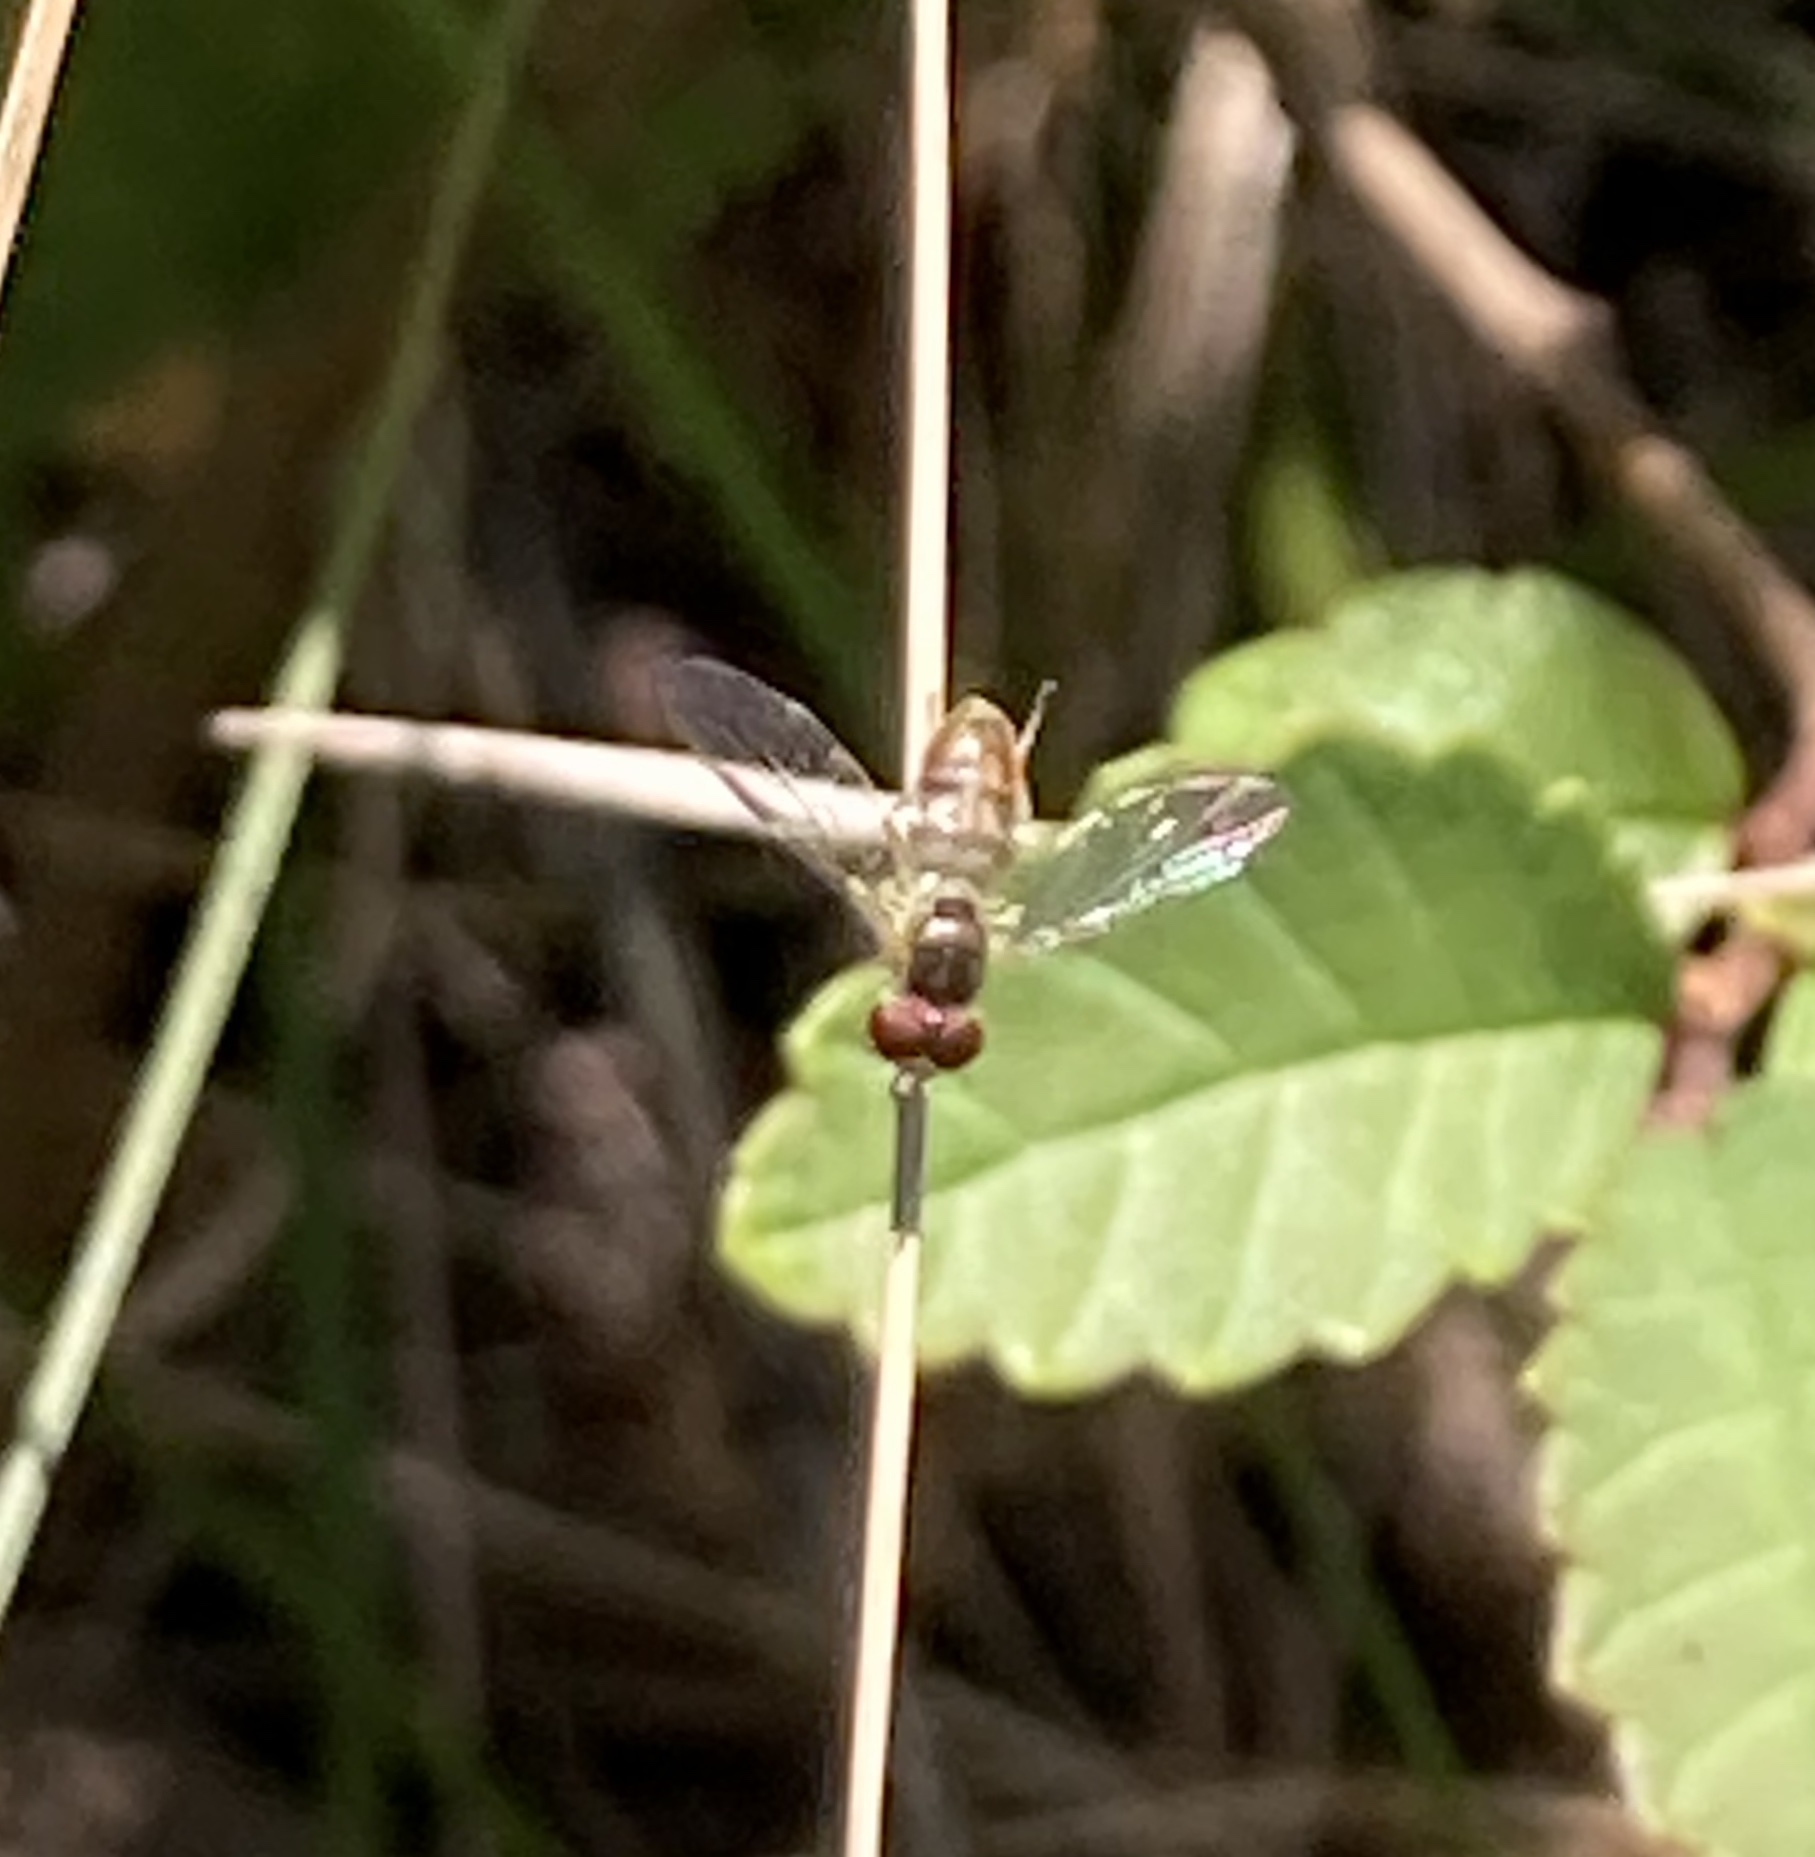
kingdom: Animalia
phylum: Arthropoda
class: Insecta
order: Diptera
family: Syrphidae
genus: Toxomerus
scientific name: Toxomerus marginatus
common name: Syrphid fly
